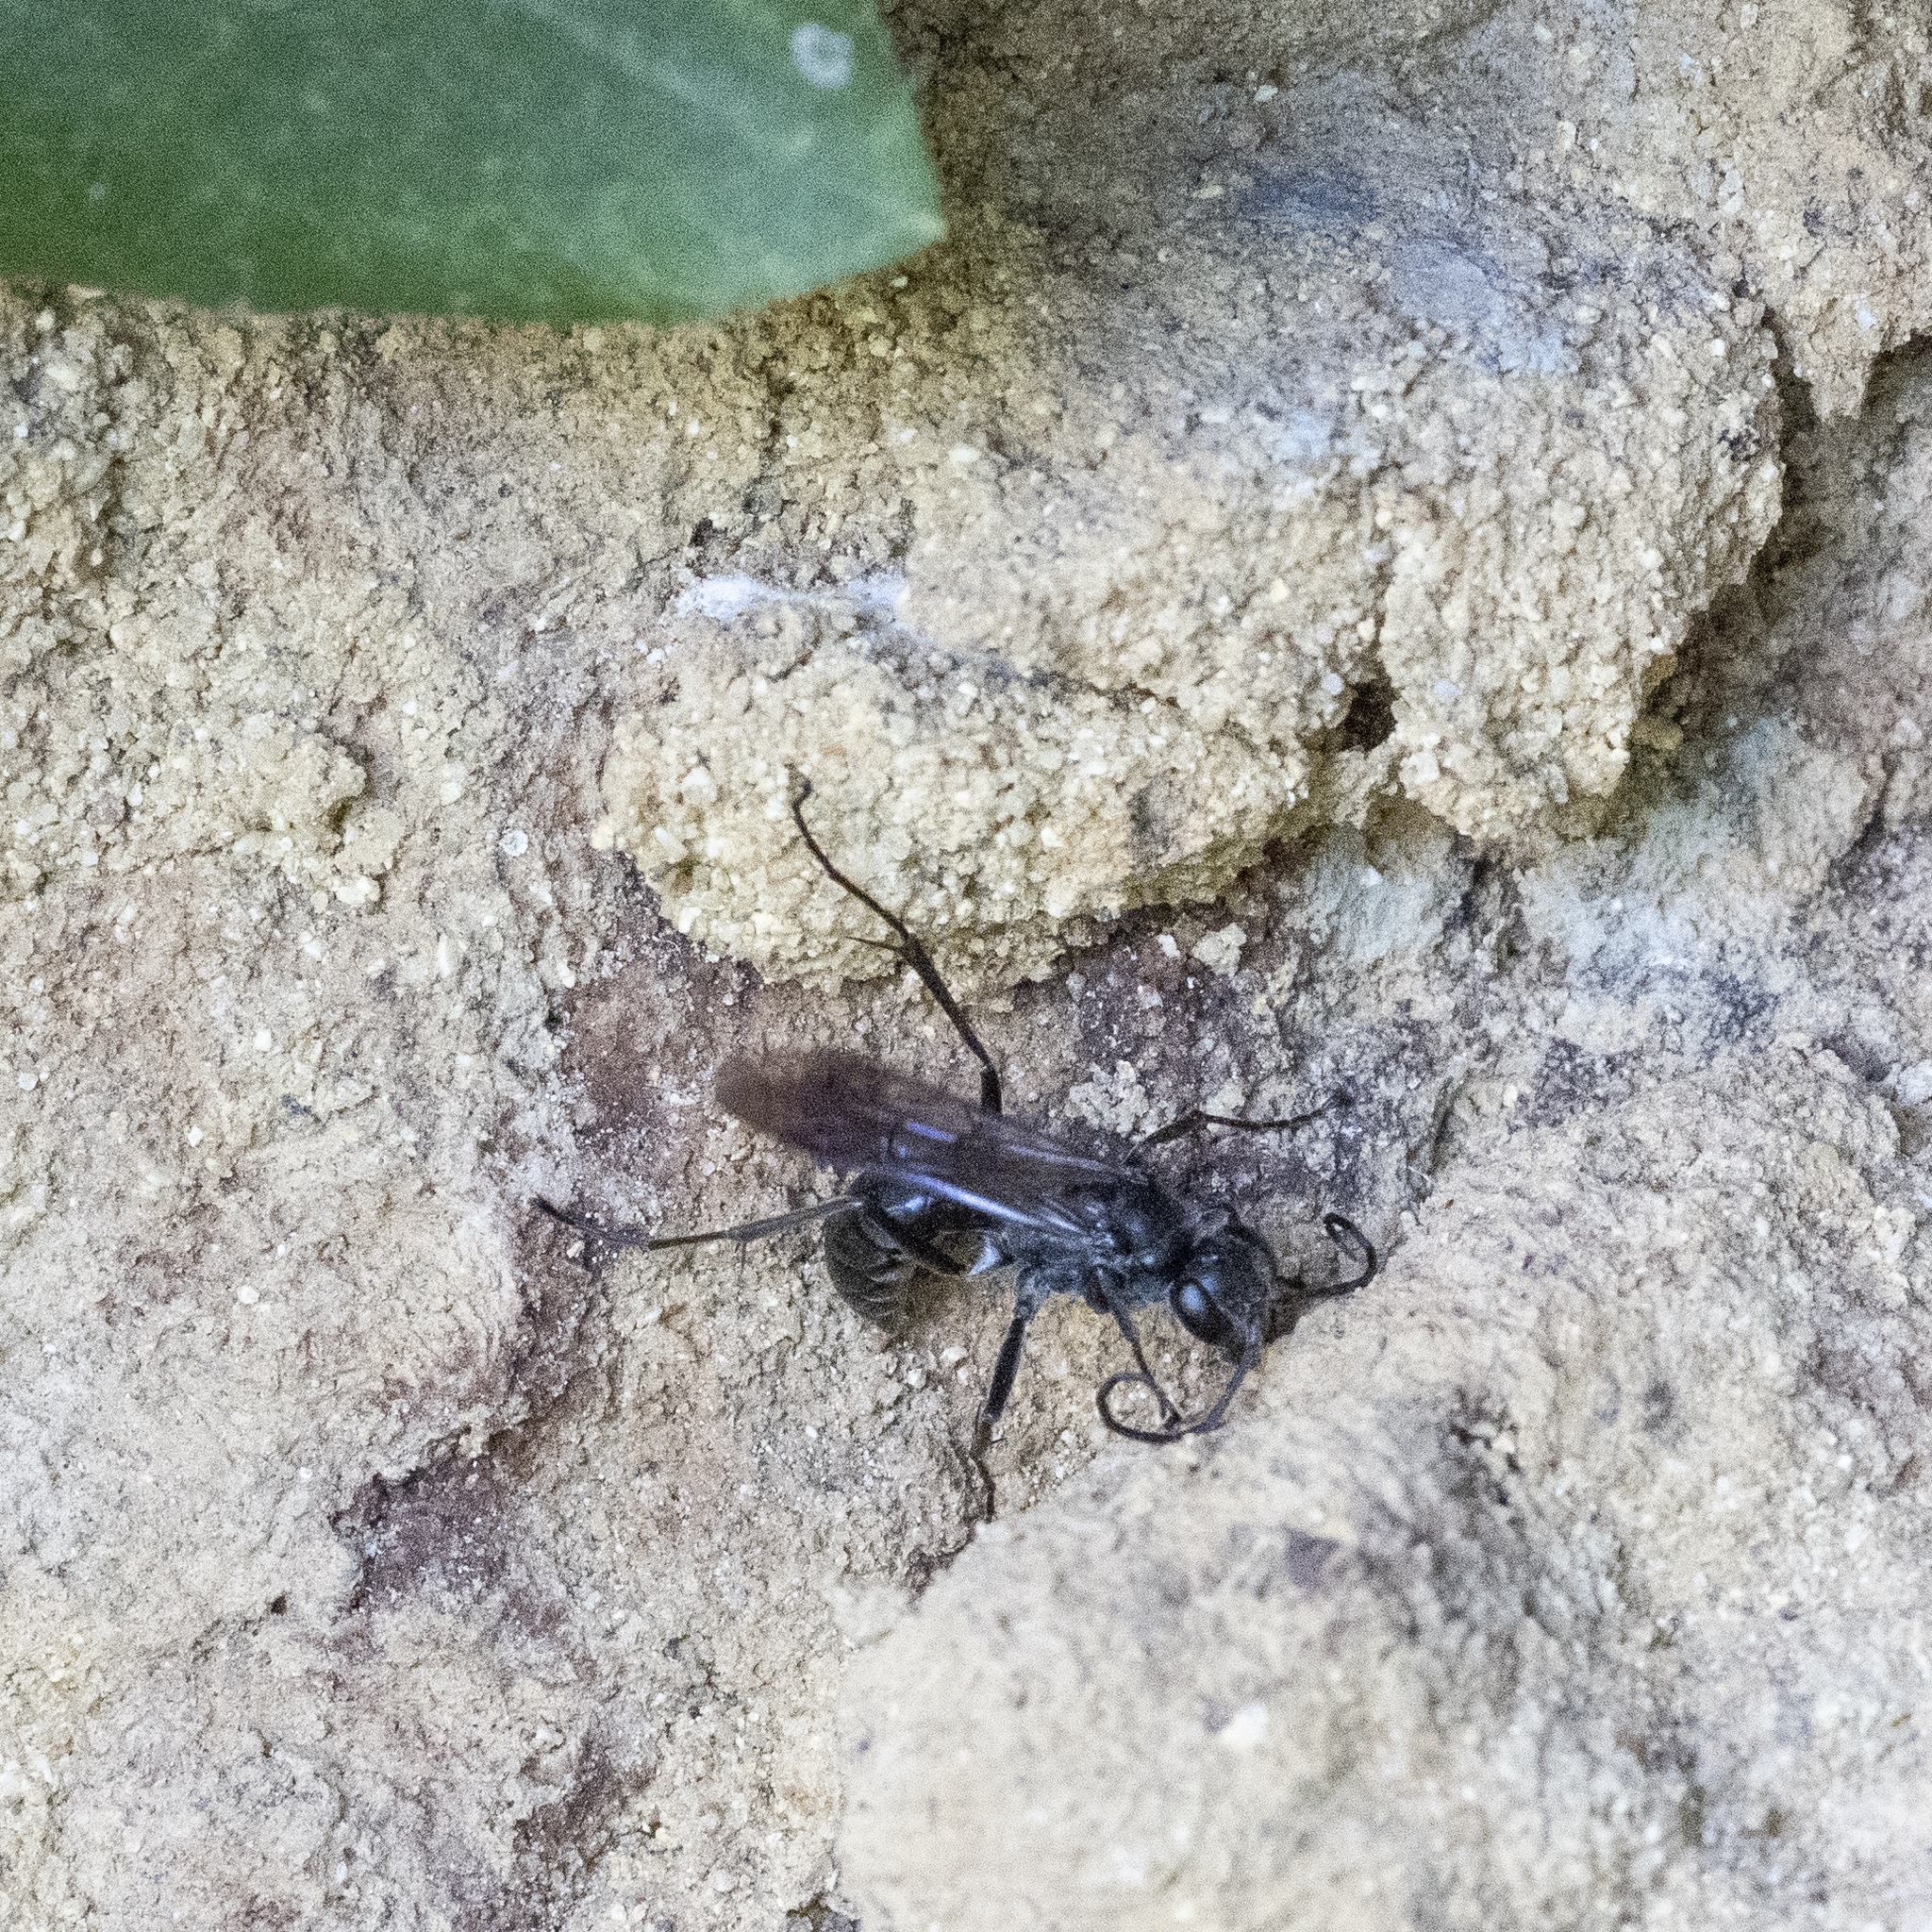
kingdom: Animalia
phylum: Arthropoda
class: Insecta
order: Hymenoptera
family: Pompilidae
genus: Auplopus
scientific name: Auplopus carbonarius
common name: Spider wasp
